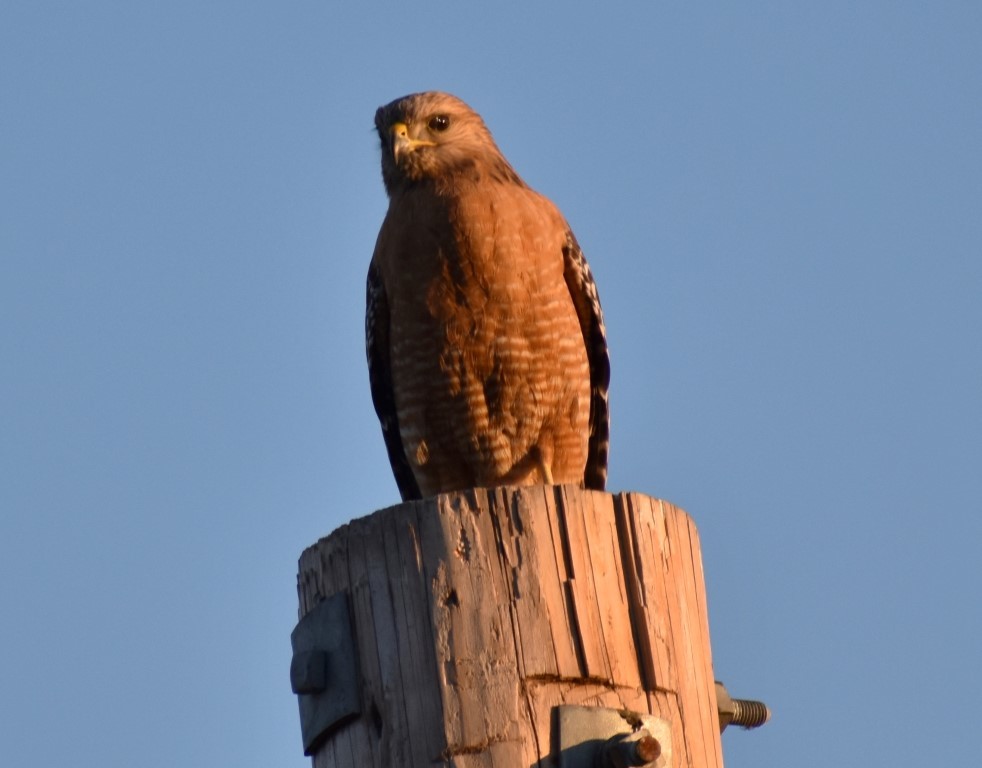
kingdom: Animalia
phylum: Chordata
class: Aves
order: Accipitriformes
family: Accipitridae
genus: Buteo
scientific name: Buteo lineatus
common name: Red-shouldered hawk
